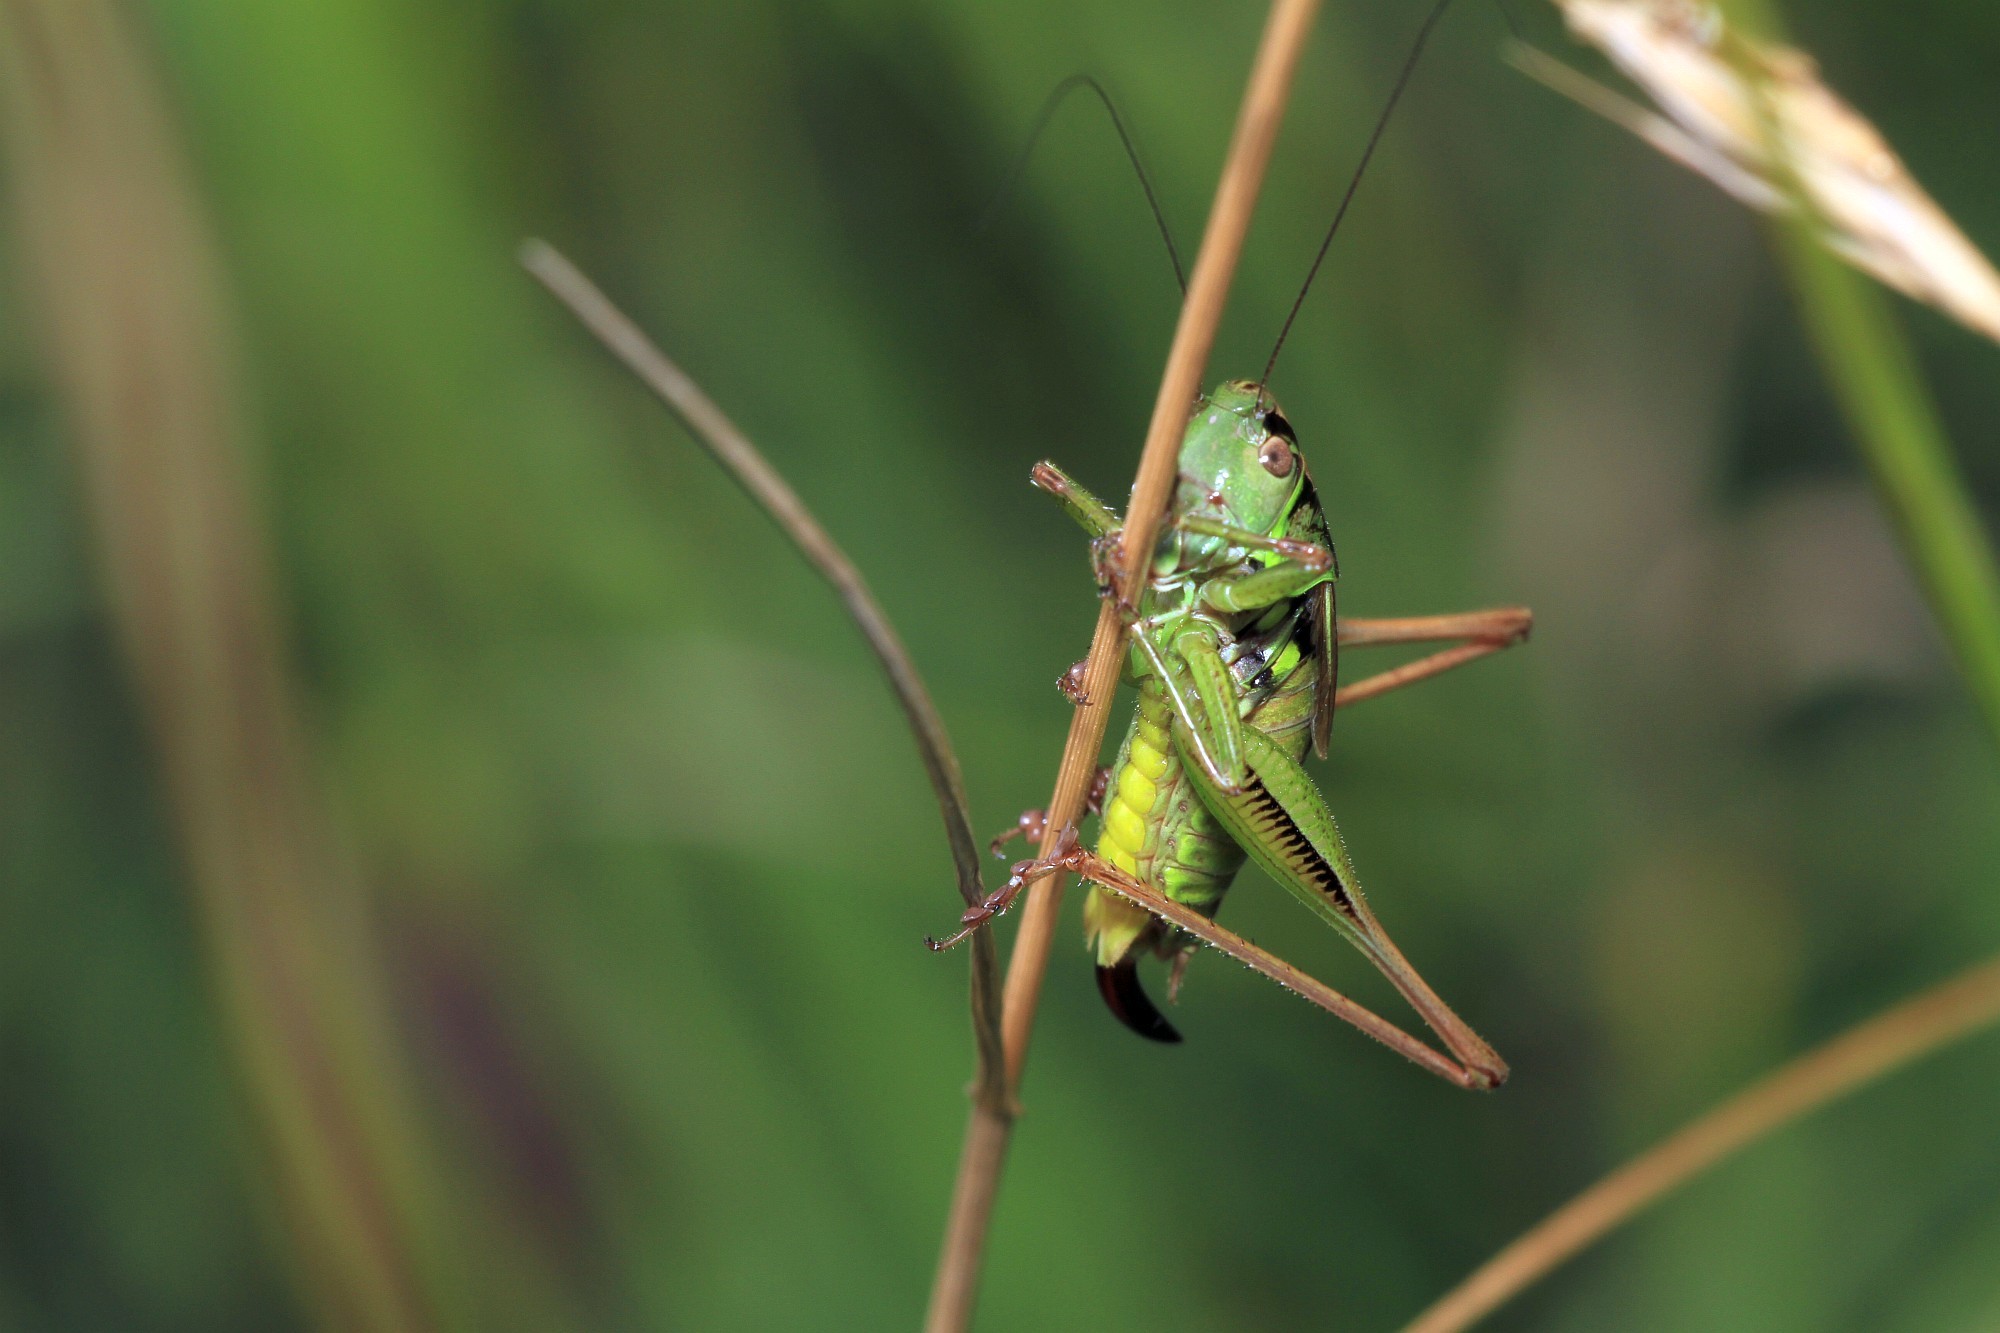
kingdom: Animalia
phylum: Arthropoda
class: Insecta
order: Orthoptera
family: Tettigoniidae
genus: Roeseliana
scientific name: Roeseliana roeselii
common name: Roesel's bush cricket
